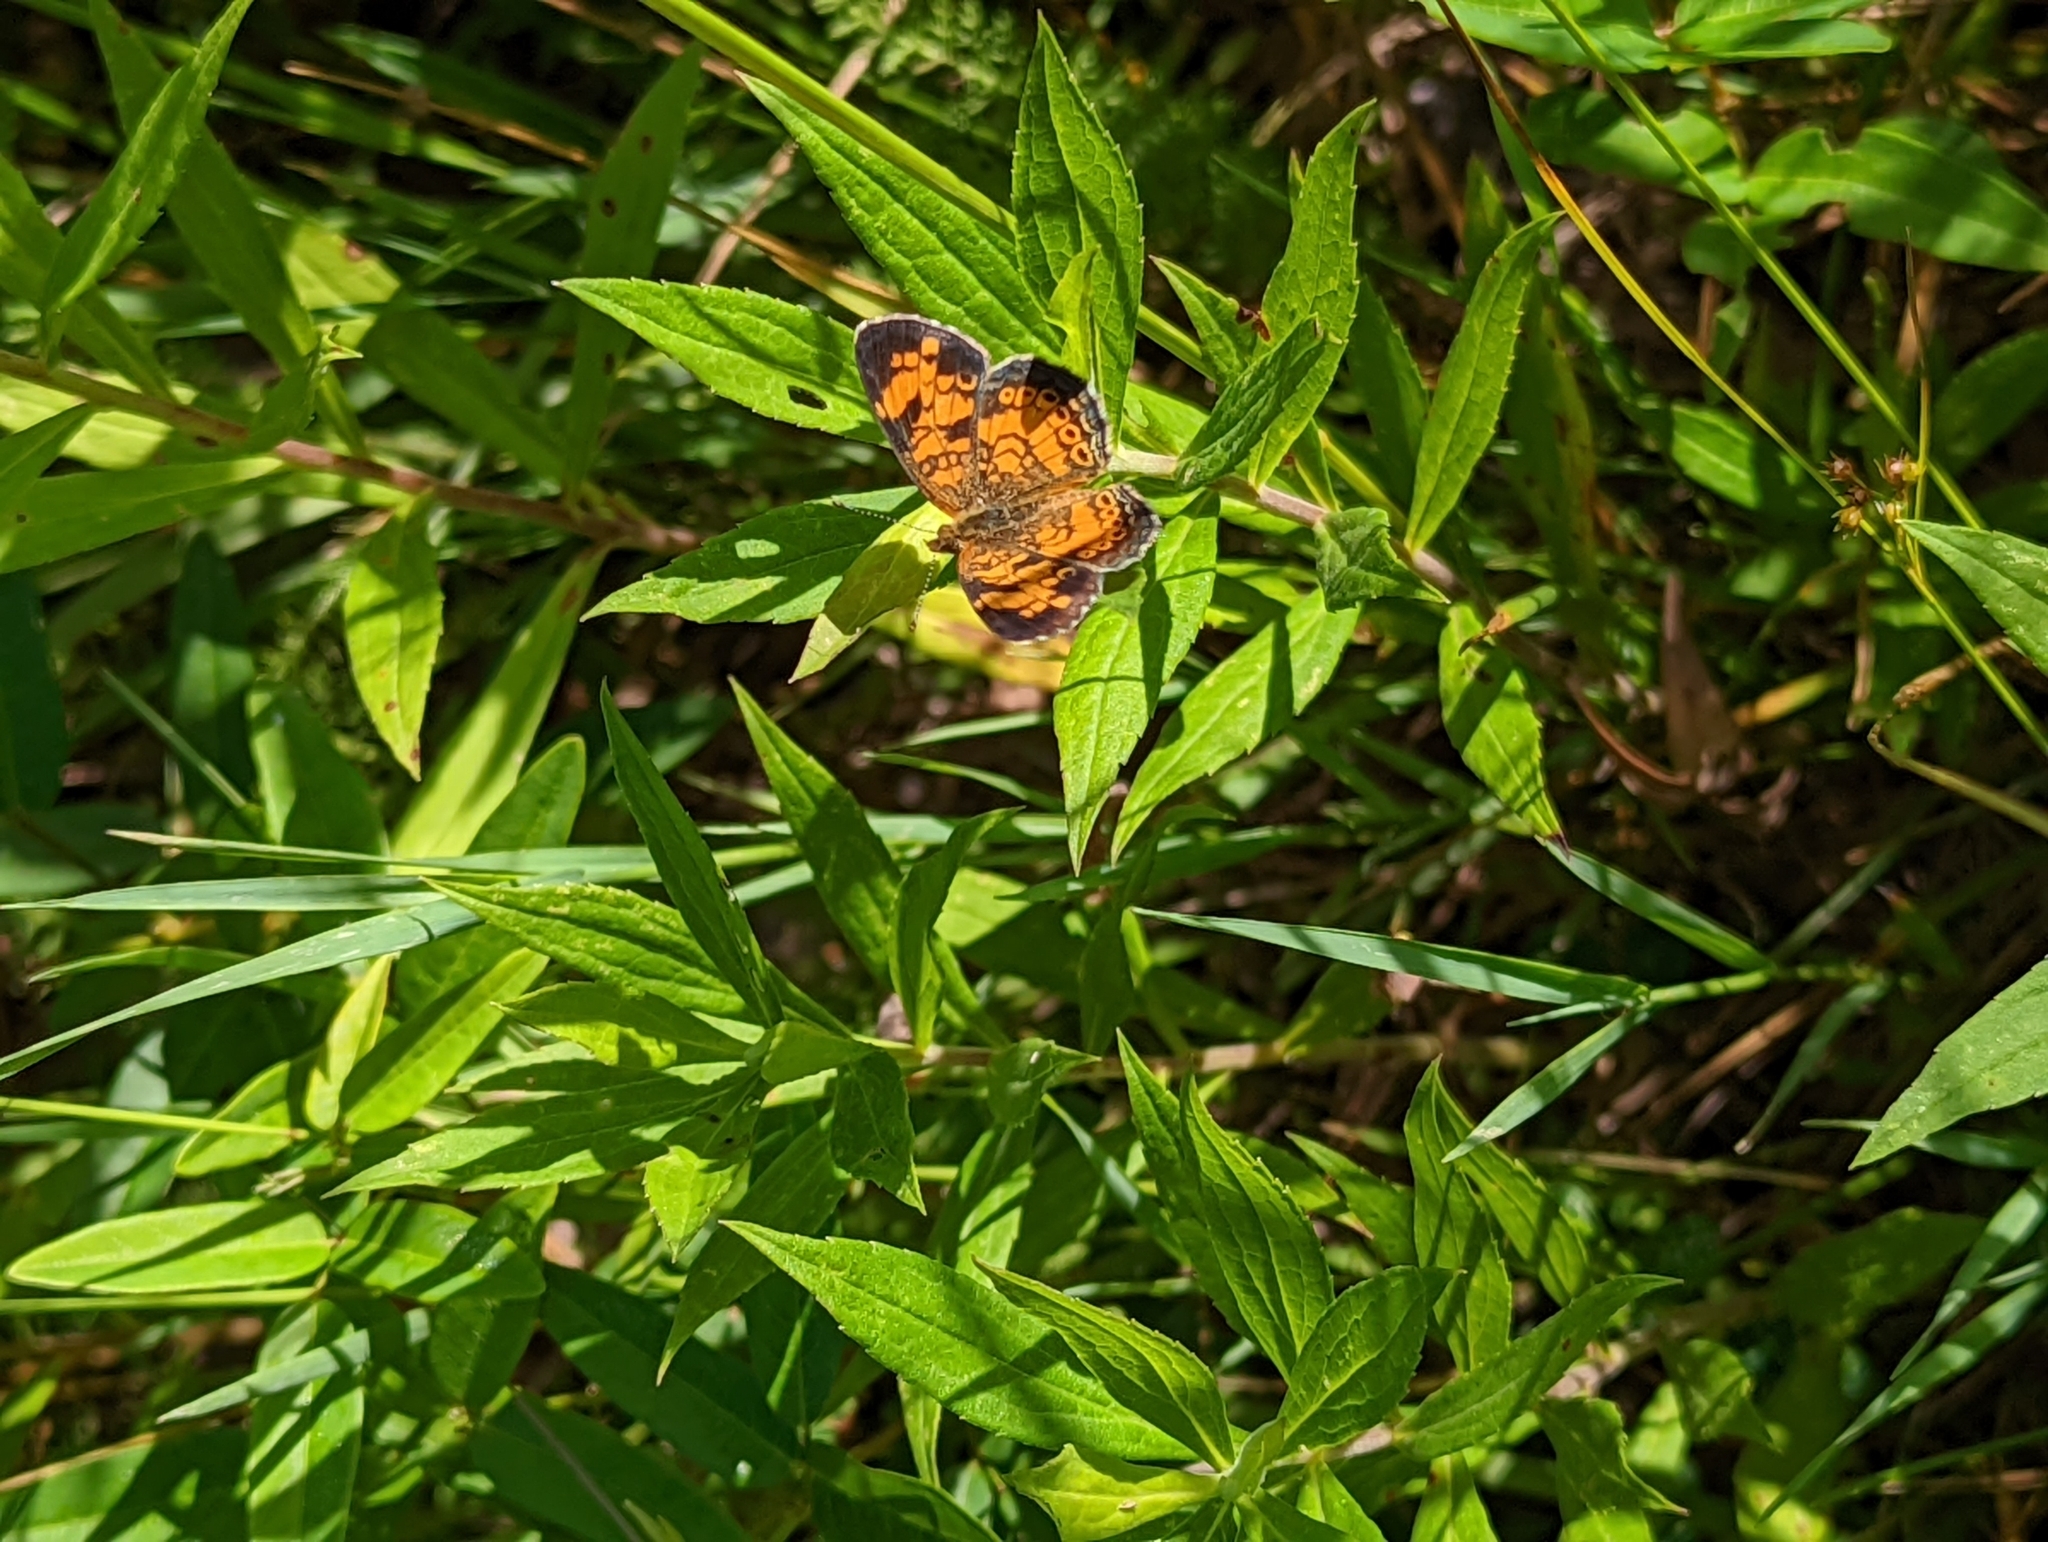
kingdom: Animalia
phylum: Arthropoda
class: Insecta
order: Lepidoptera
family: Nymphalidae
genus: Phyciodes
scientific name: Phyciodes tharos
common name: Pearl crescent
